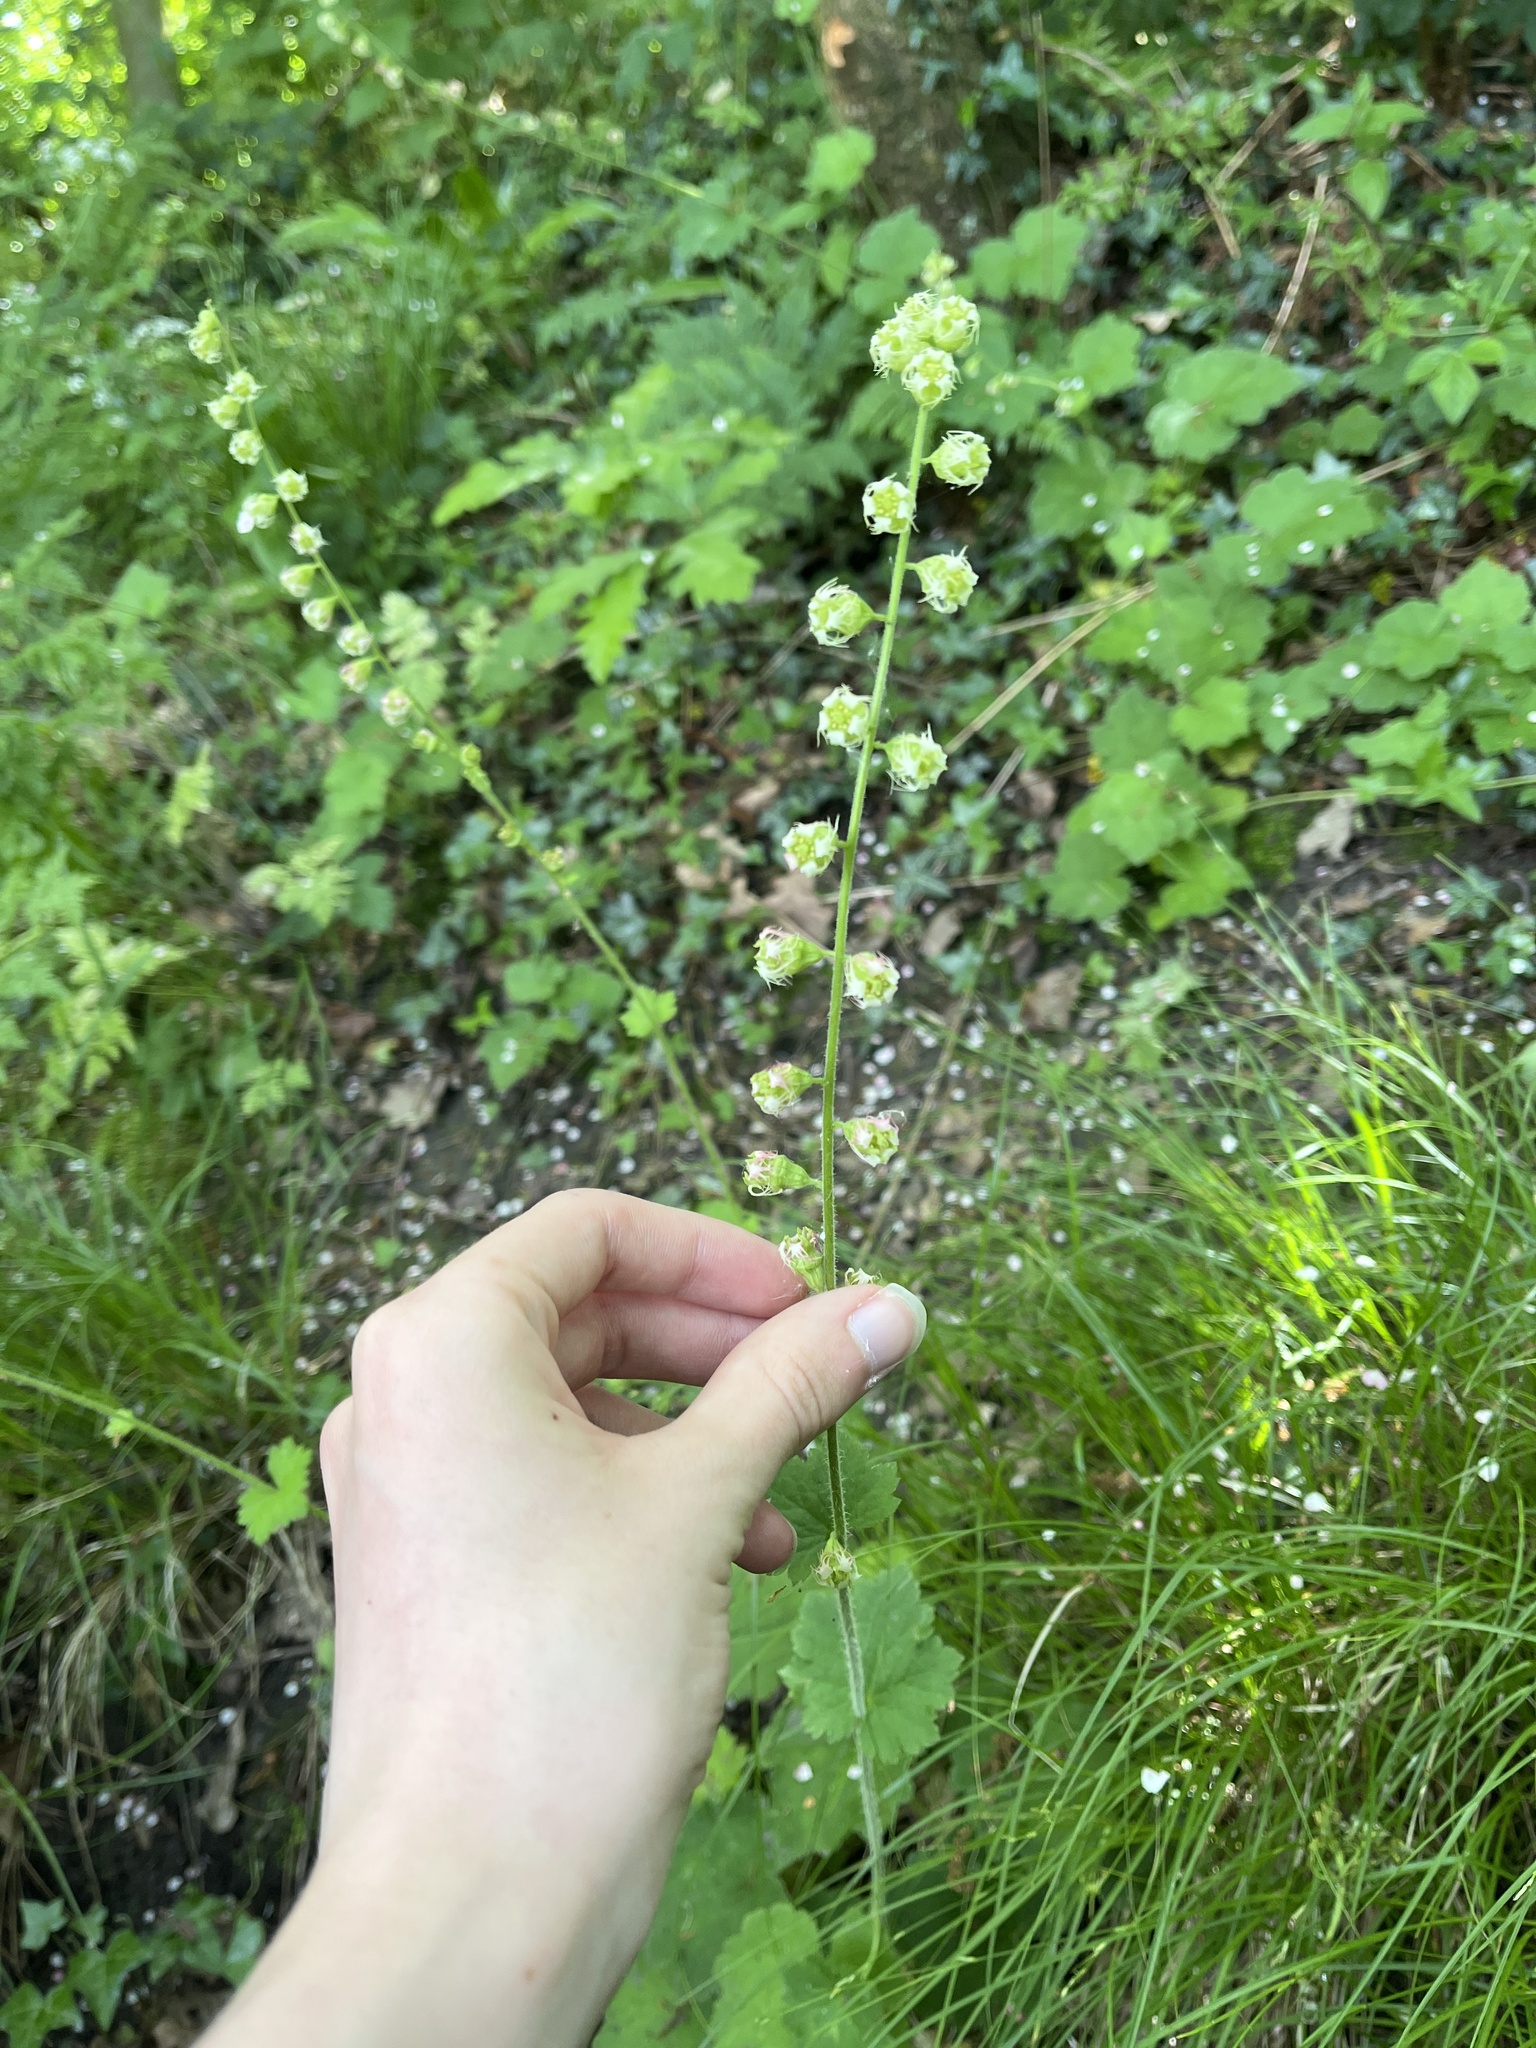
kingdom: Plantae
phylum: Tracheophyta
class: Magnoliopsida
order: Saxifragales
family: Saxifragaceae
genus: Tellima
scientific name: Tellima grandiflora
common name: Fringecups
